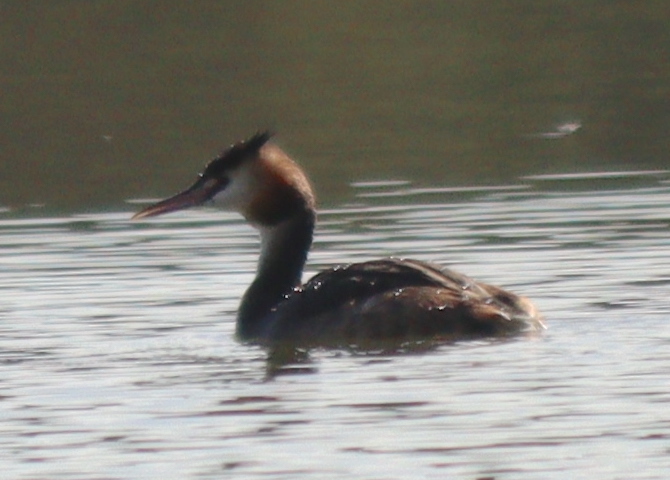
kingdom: Animalia
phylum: Chordata
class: Aves
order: Podicipediformes
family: Podicipedidae
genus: Podiceps
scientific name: Podiceps cristatus
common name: Great crested grebe
